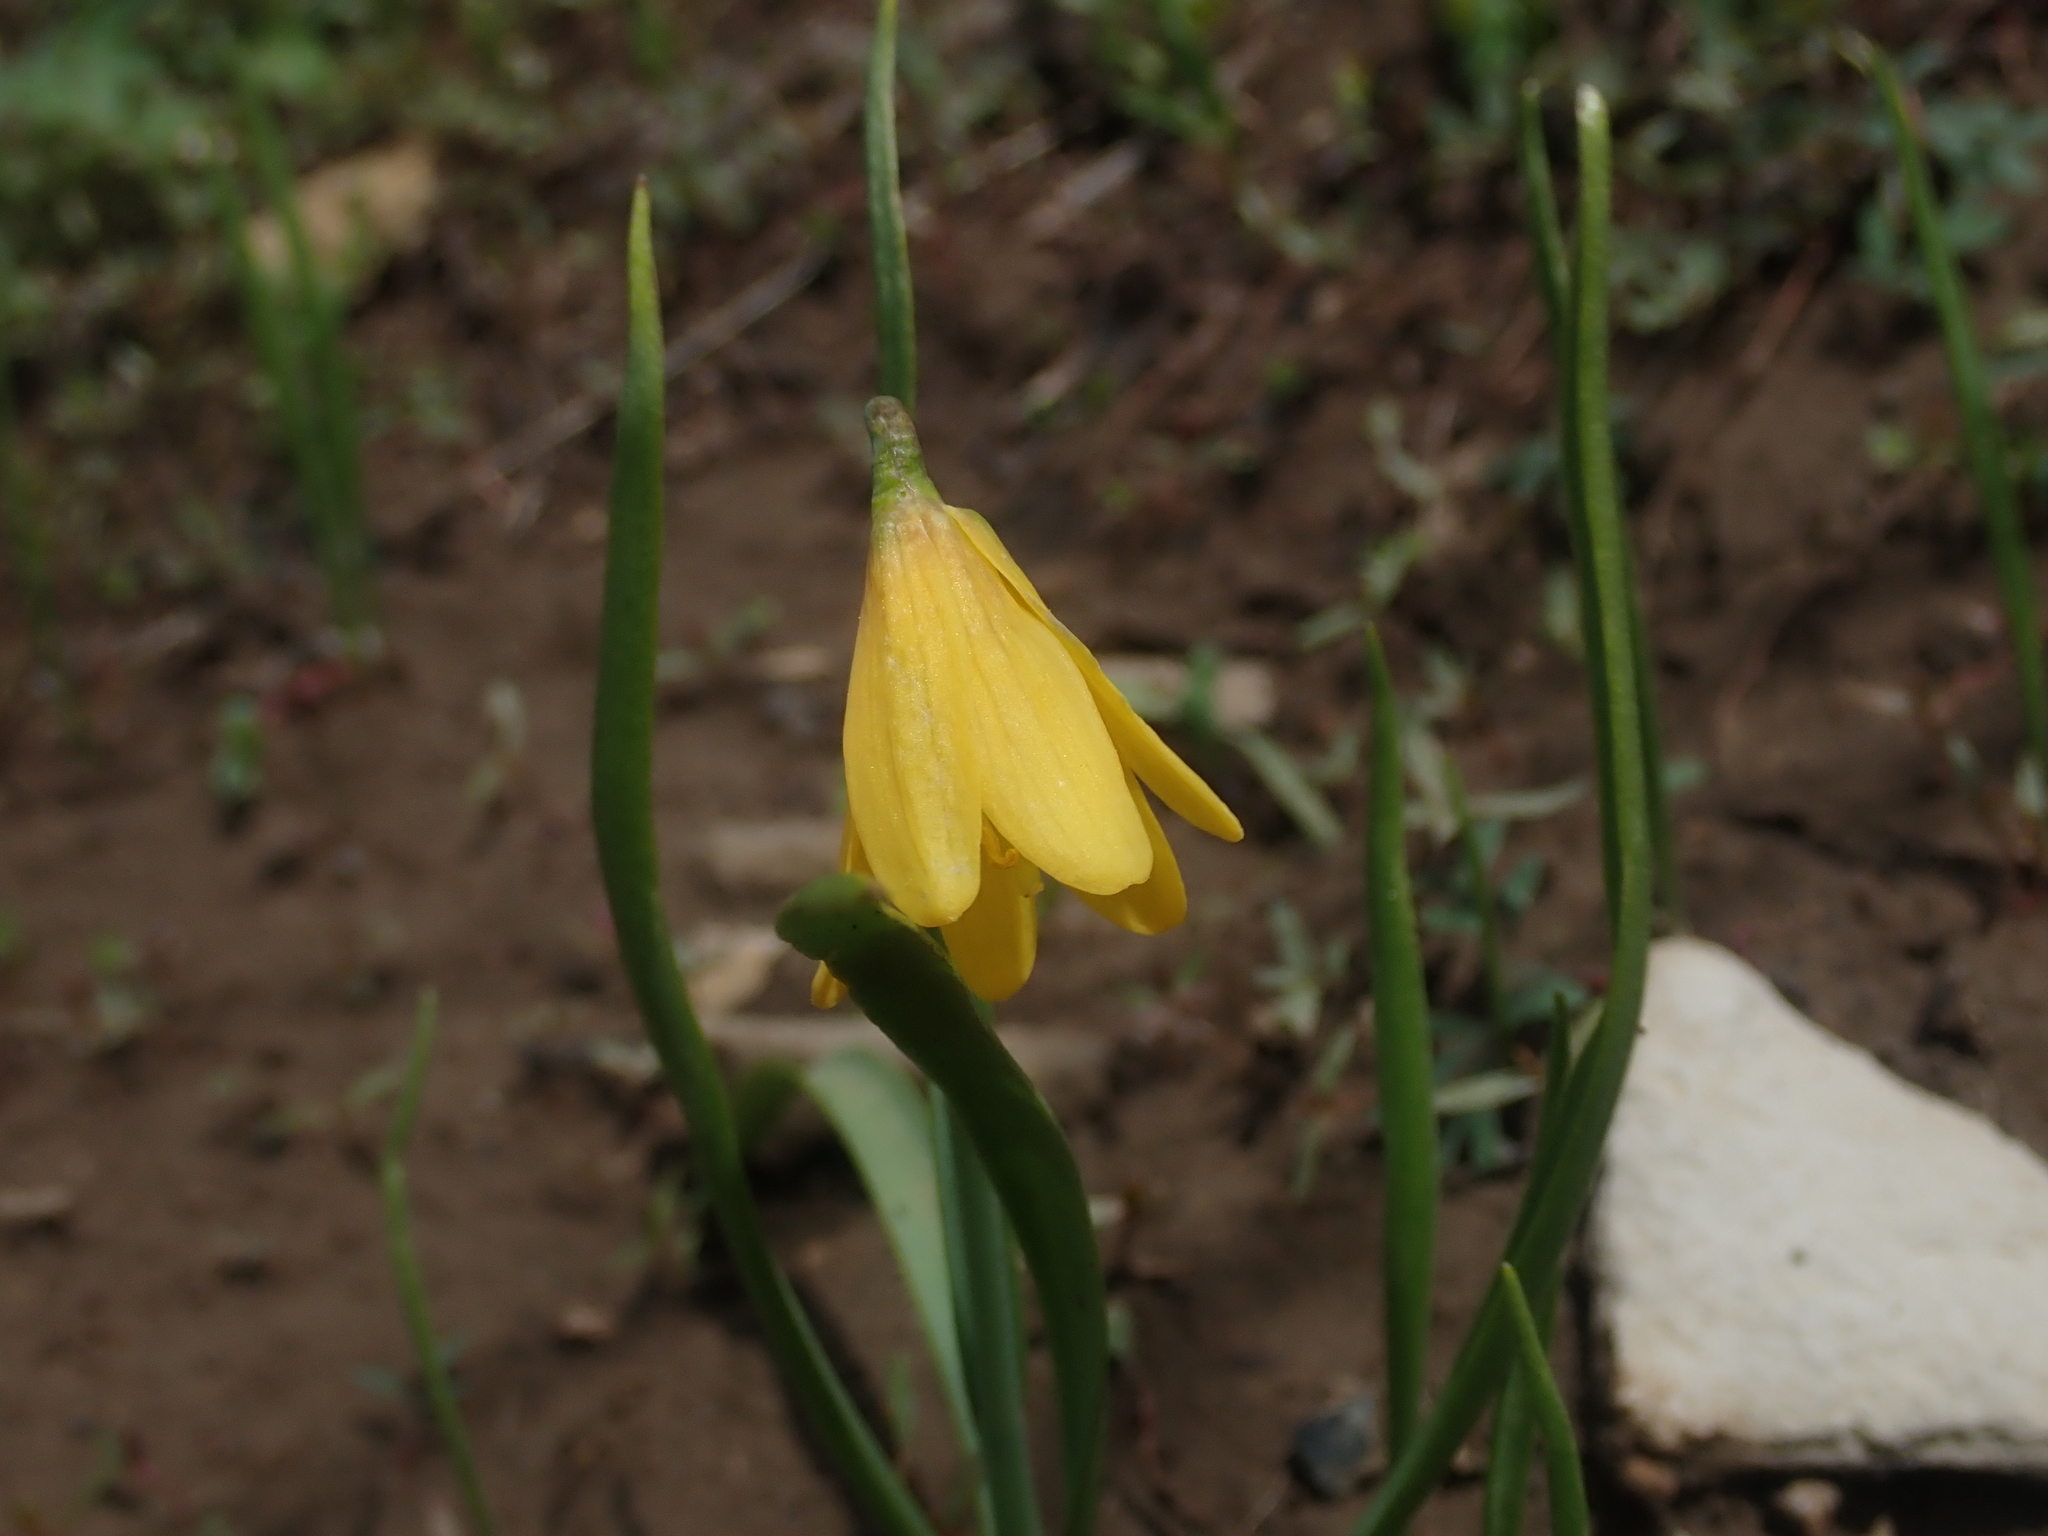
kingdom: Plantae
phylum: Tracheophyta
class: Liliopsida
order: Liliales
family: Liliaceae
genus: Fritillaria
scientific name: Fritillaria pudica
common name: Yellow fritillary
